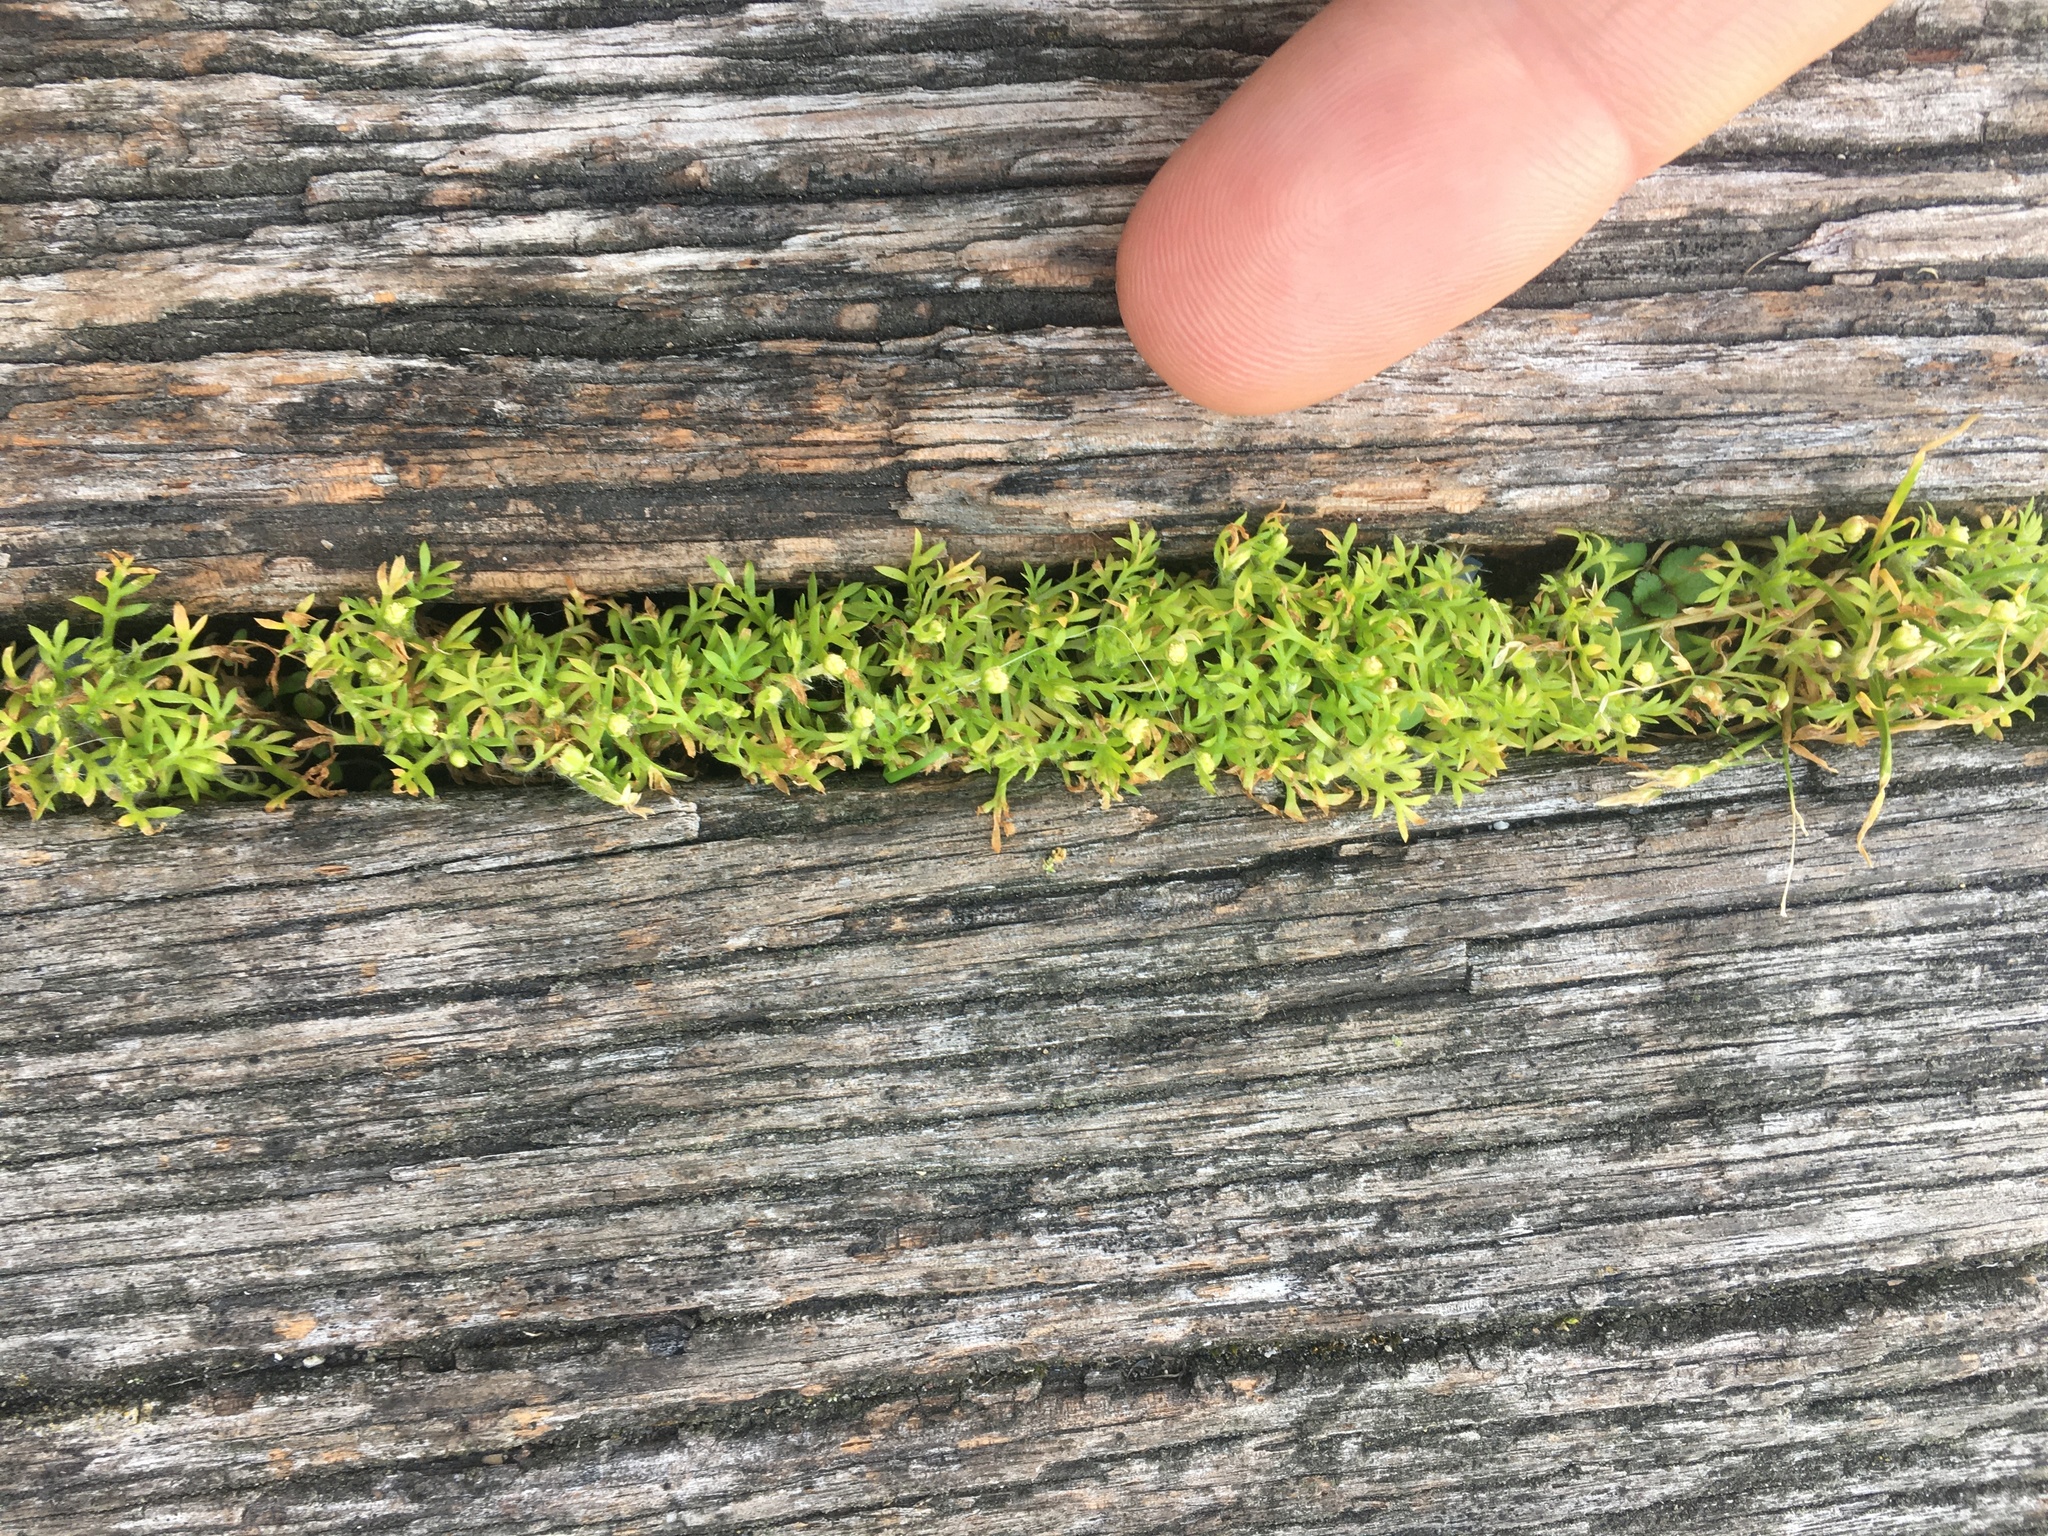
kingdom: Plantae
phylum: Tracheophyta
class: Magnoliopsida
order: Asterales
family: Asteraceae
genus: Cotula
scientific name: Cotula australis
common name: Australian waterbuttons
